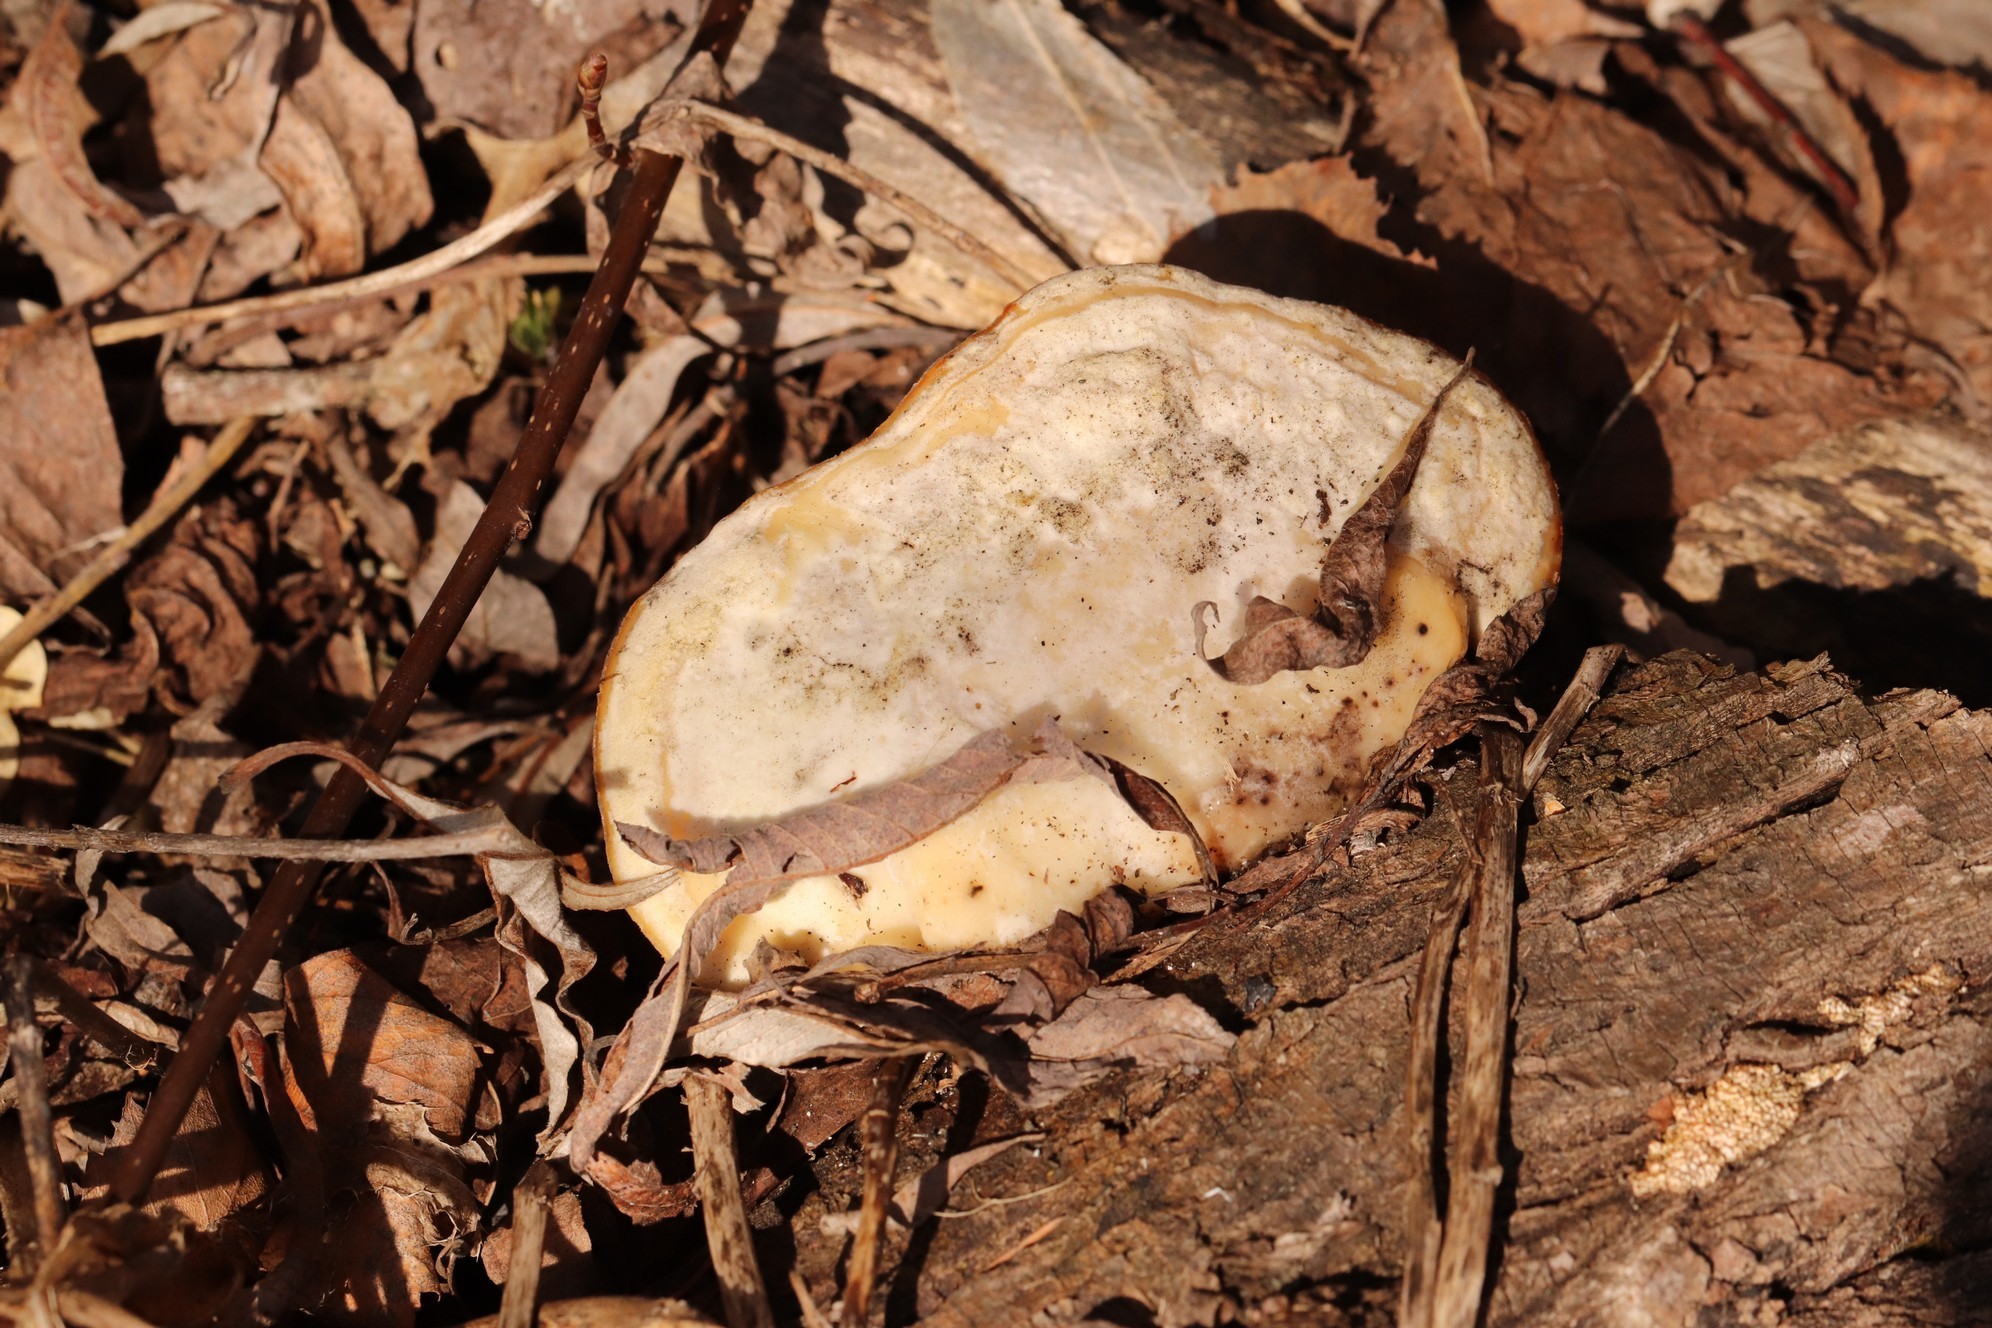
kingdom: Fungi
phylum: Basidiomycota
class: Agaricomycetes
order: Polyporales
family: Polyporaceae
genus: Trametes
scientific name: Trametes suaveolens
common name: Fragrant bracket
